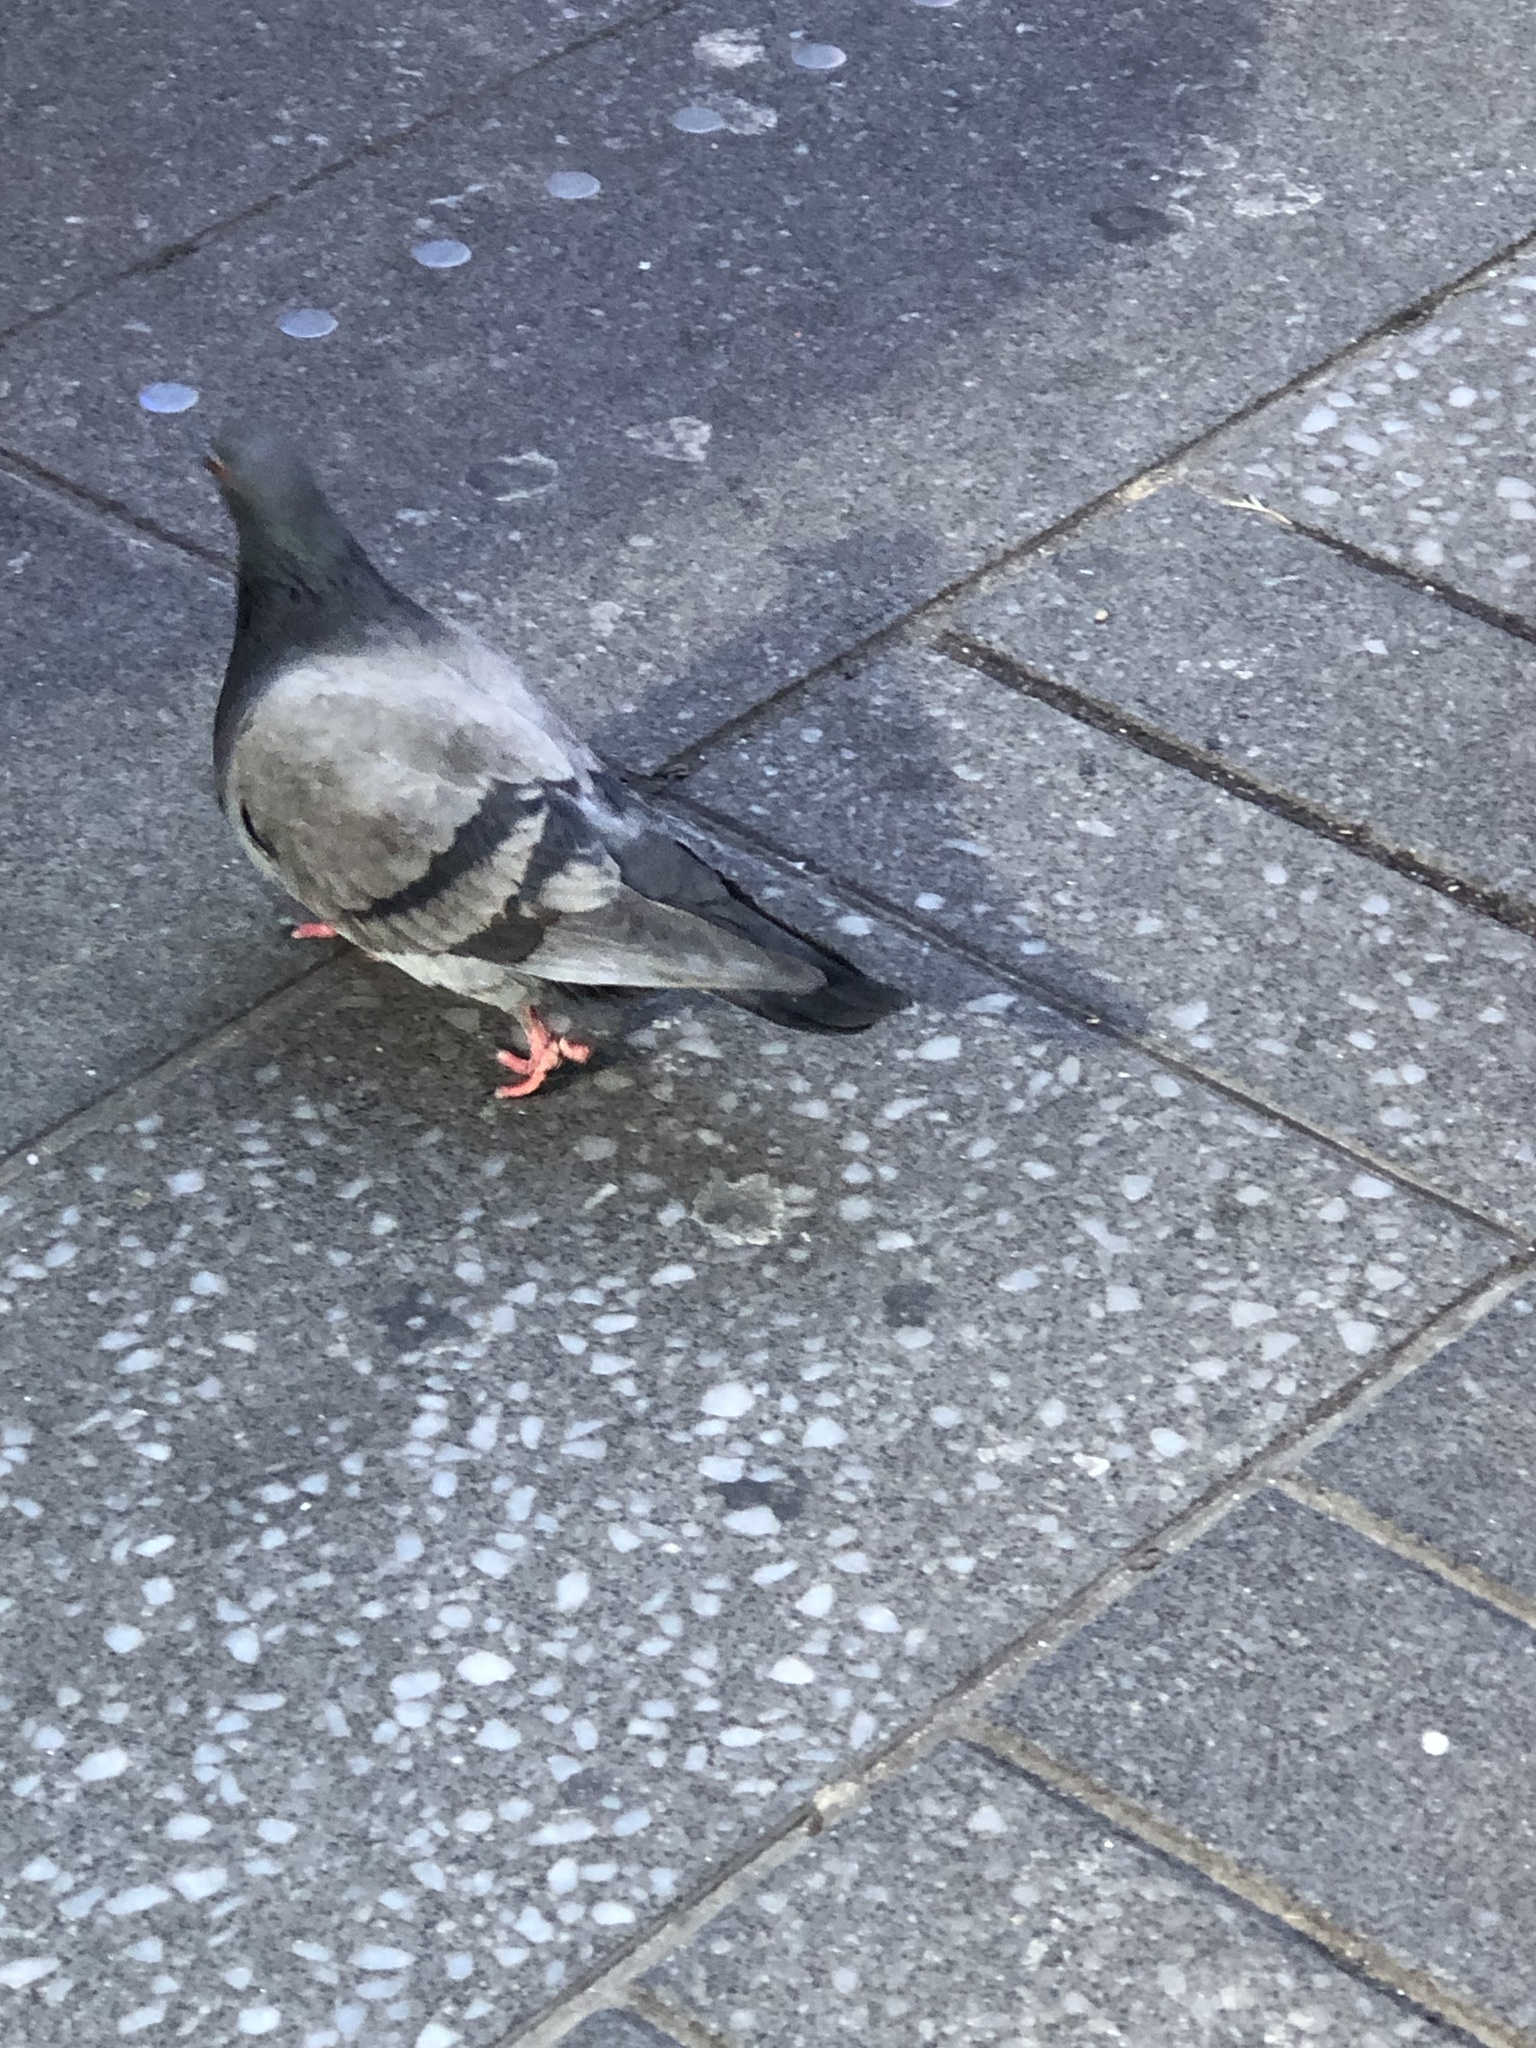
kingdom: Animalia
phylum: Chordata
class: Aves
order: Columbiformes
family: Columbidae
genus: Columba
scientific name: Columba livia
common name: Rock pigeon
